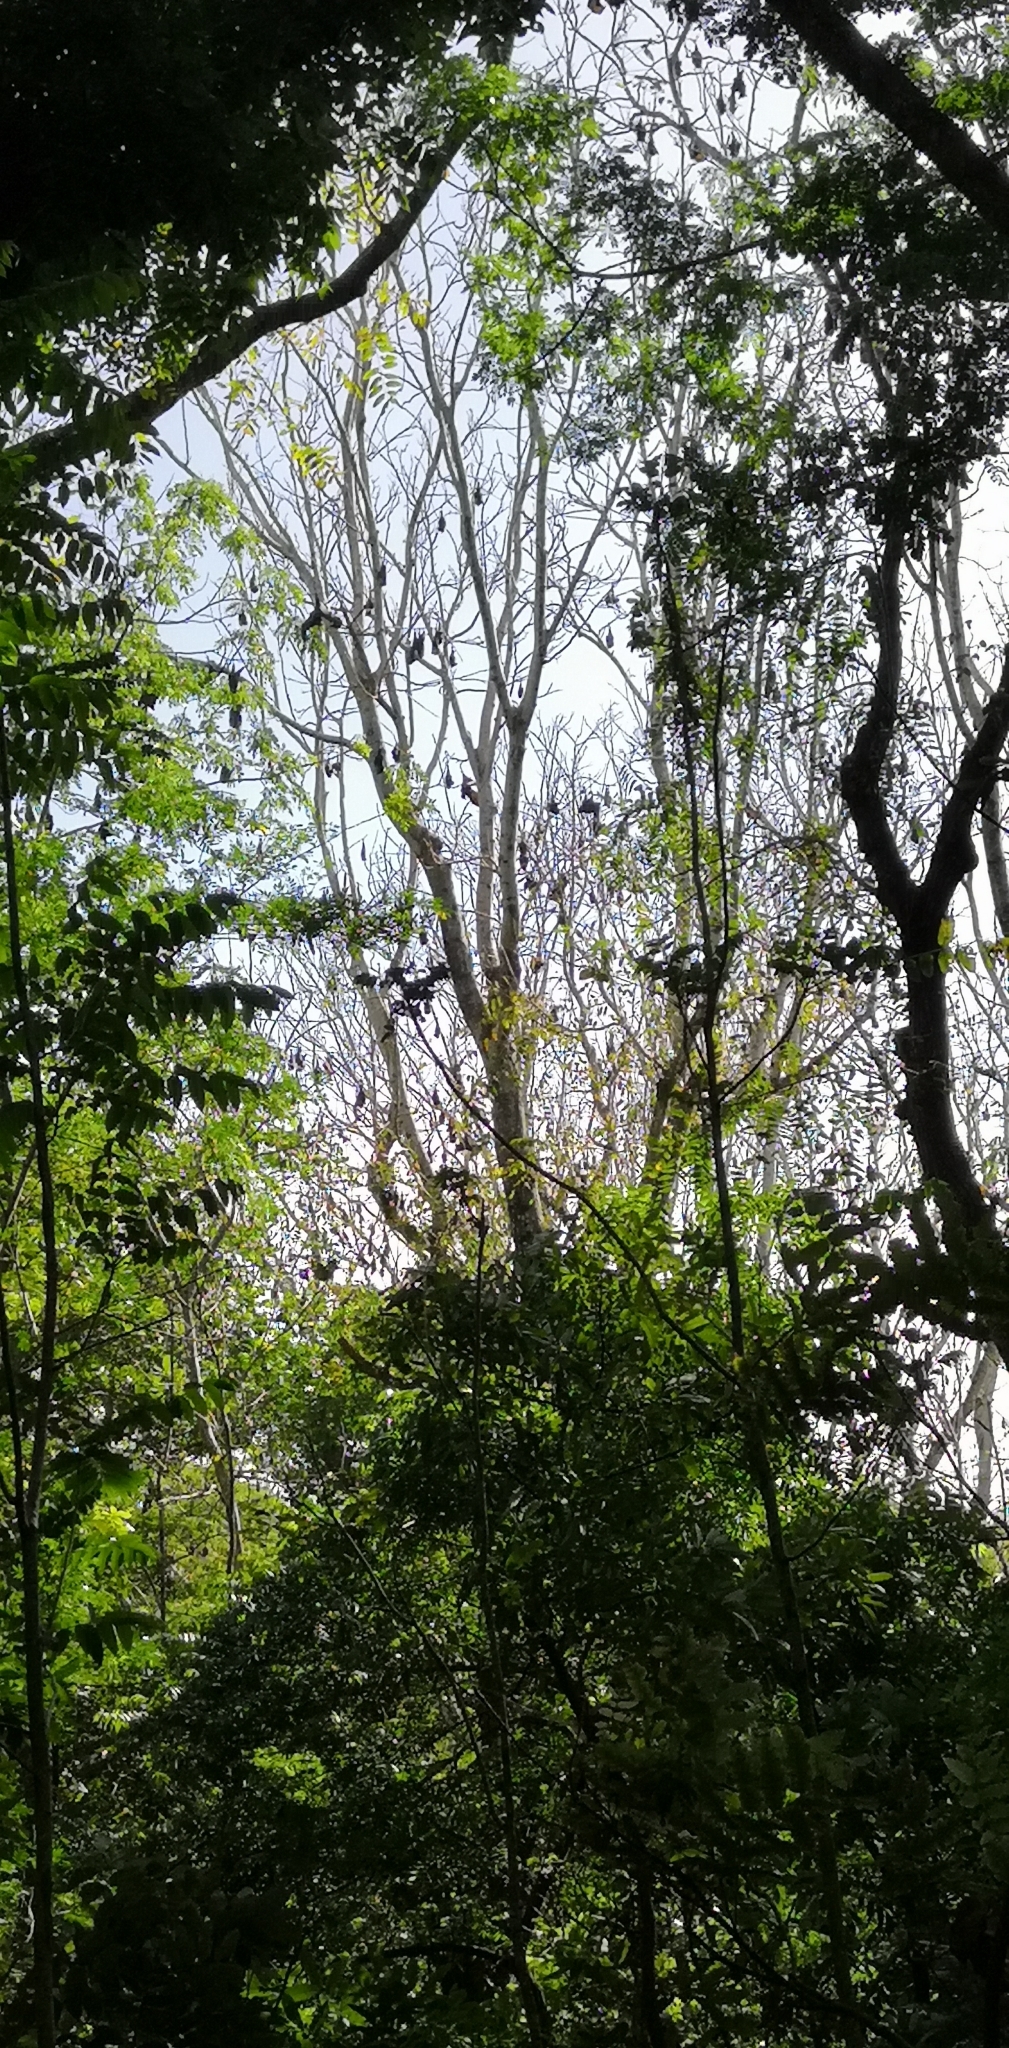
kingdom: Animalia
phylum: Chordata
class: Mammalia
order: Chiroptera
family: Pteropodidae
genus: Pteropus
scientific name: Pteropus tonganus
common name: Pacific flying fox
